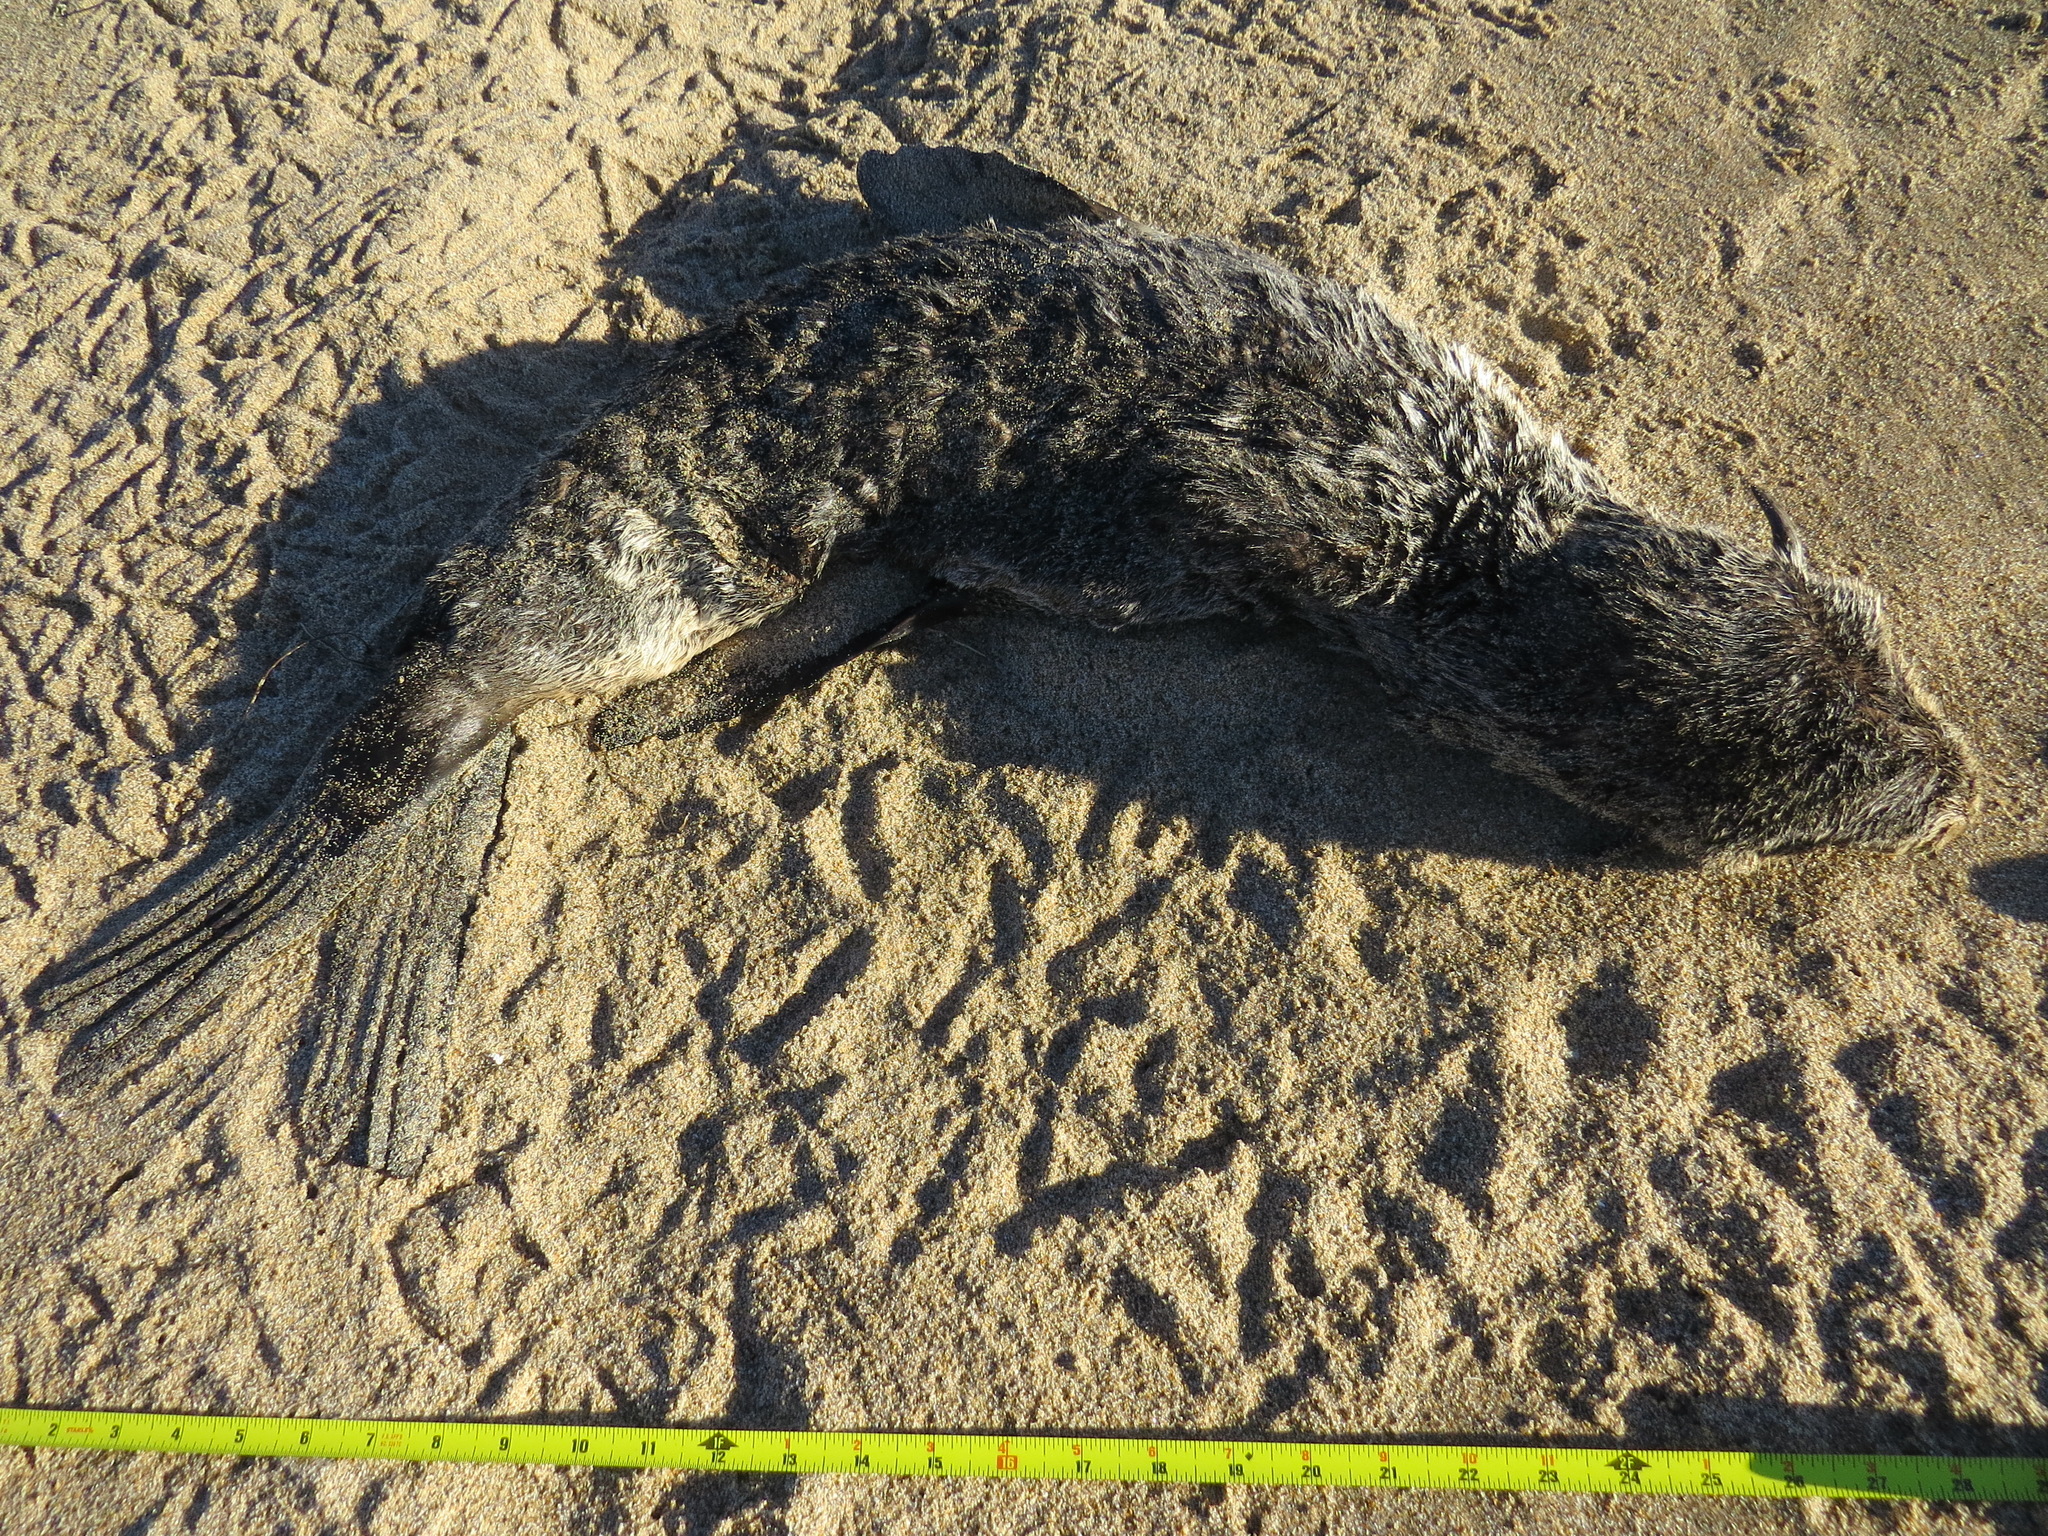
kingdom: Animalia
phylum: Chordata
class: Mammalia
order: Carnivora
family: Otariidae
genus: Callorhinus
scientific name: Callorhinus ursinus
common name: Northern fur seal
